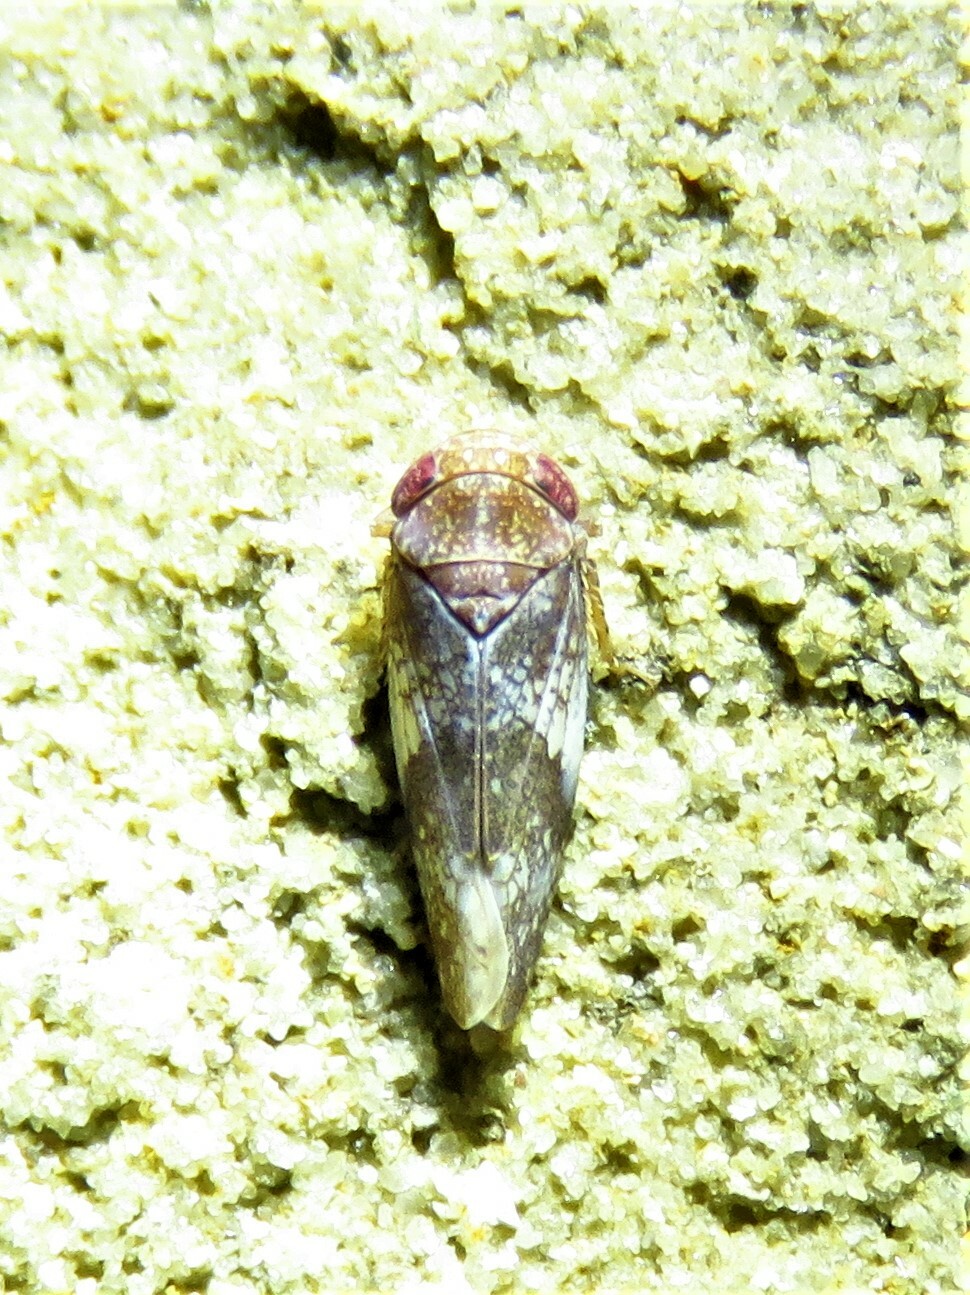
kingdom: Animalia
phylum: Arthropoda
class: Insecta
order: Hemiptera
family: Cicadellidae
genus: Norvellina
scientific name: Norvellina helenae
